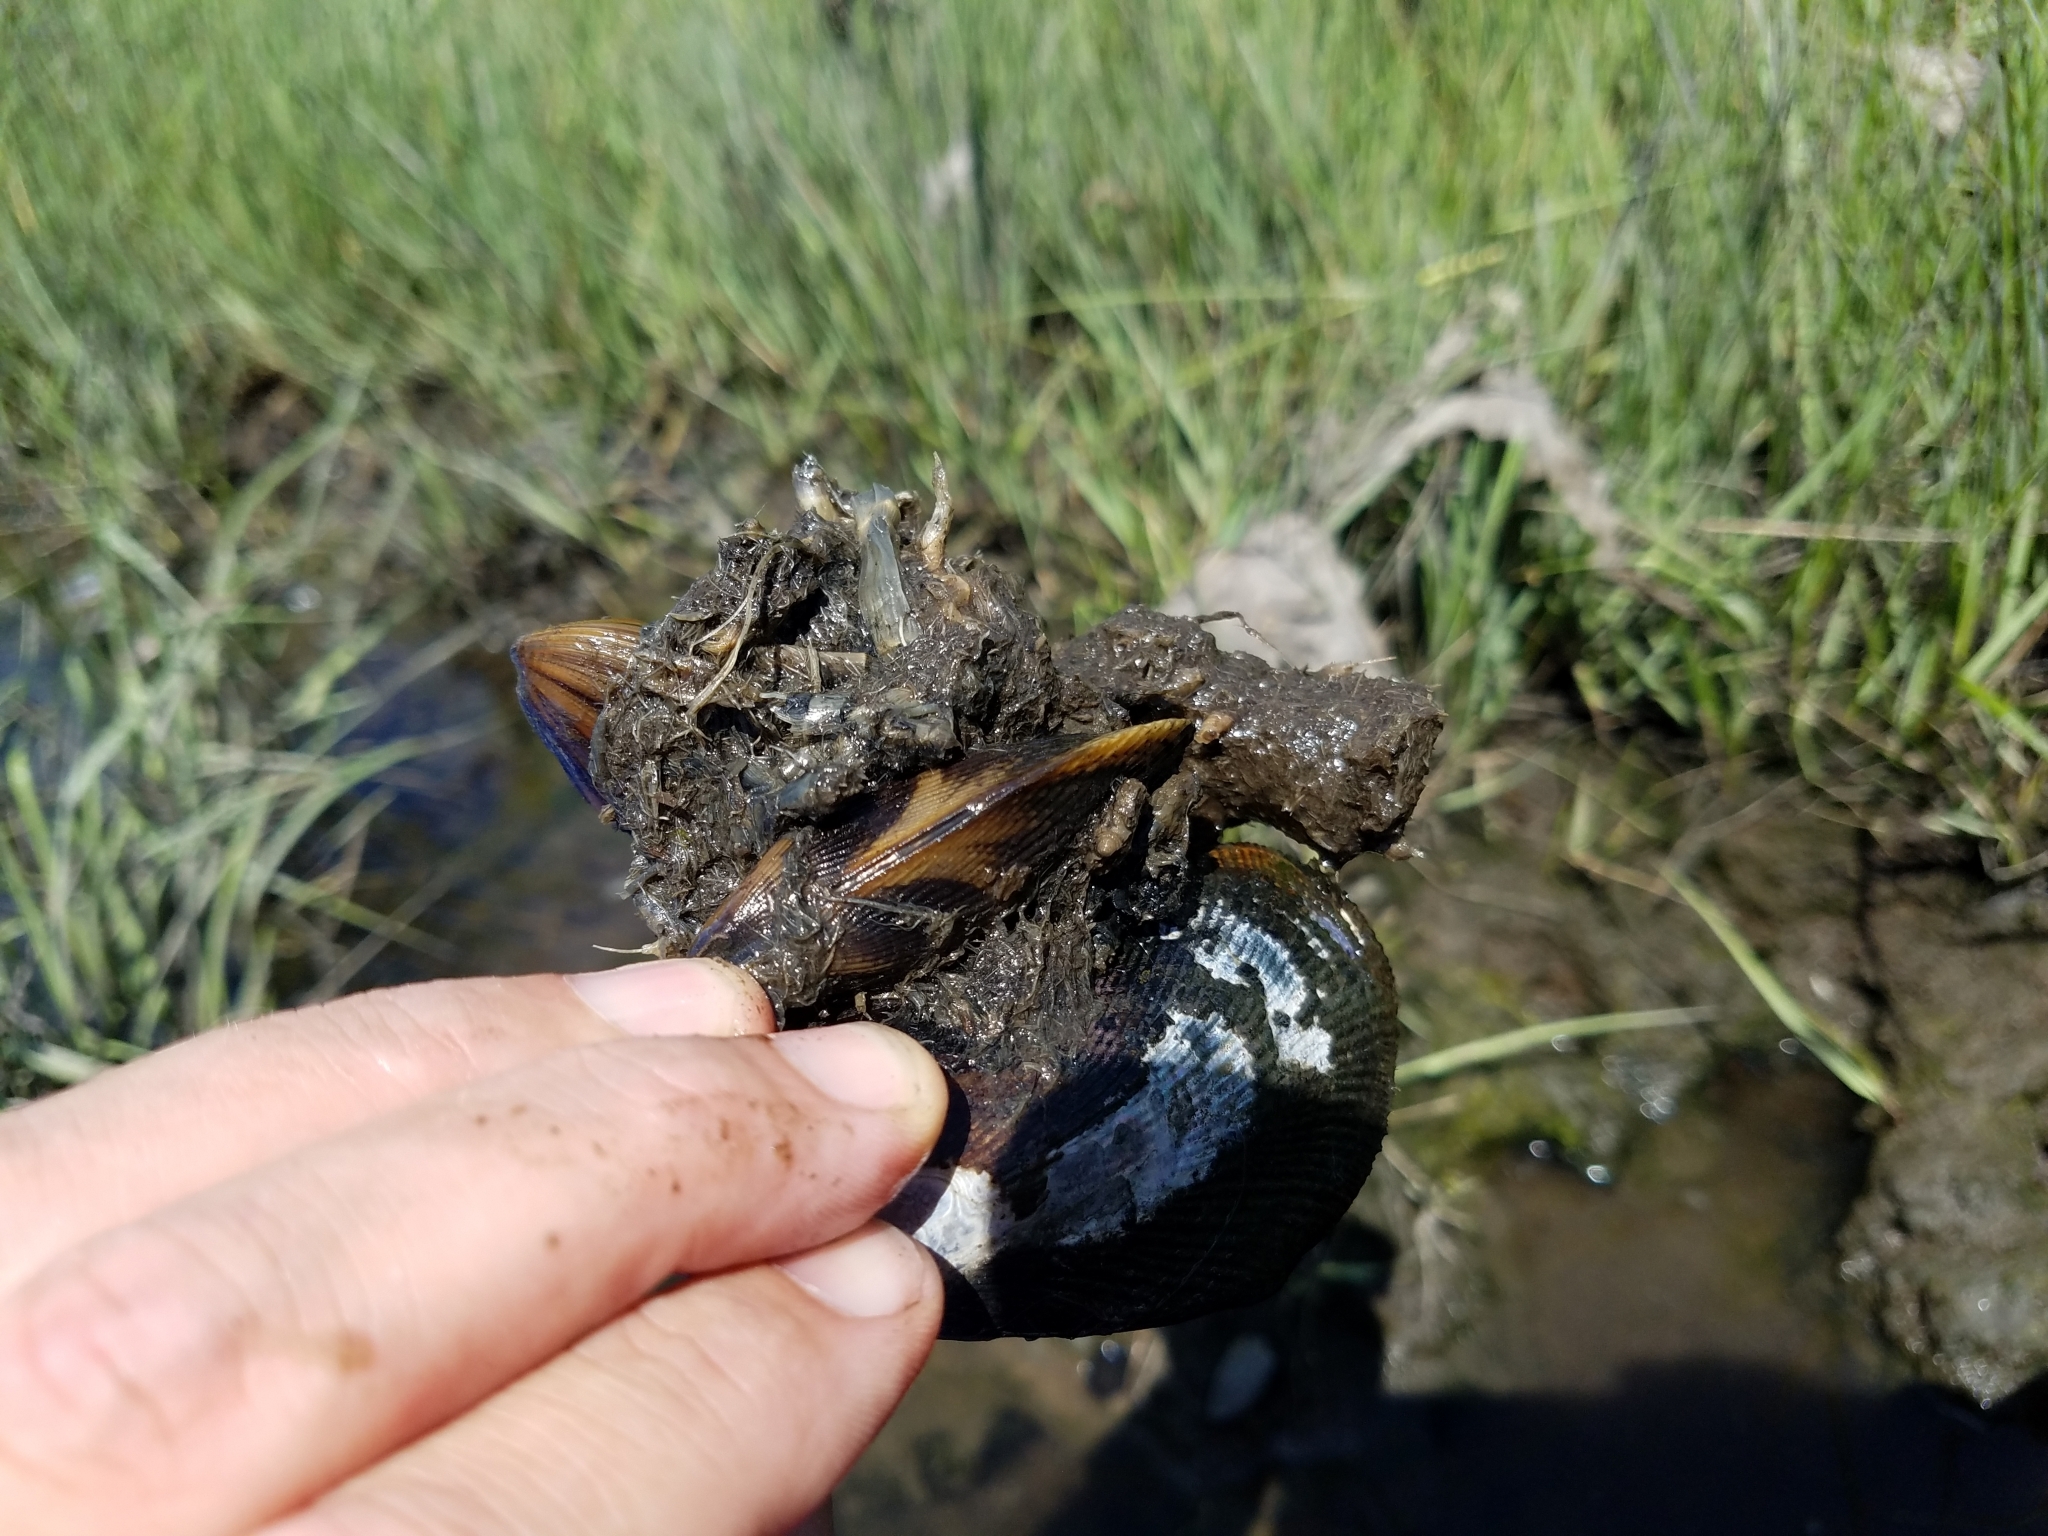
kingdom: Animalia
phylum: Mollusca
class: Bivalvia
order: Mytilida
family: Mytilidae
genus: Geukensia
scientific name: Geukensia demissa
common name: Ribbed mussel
